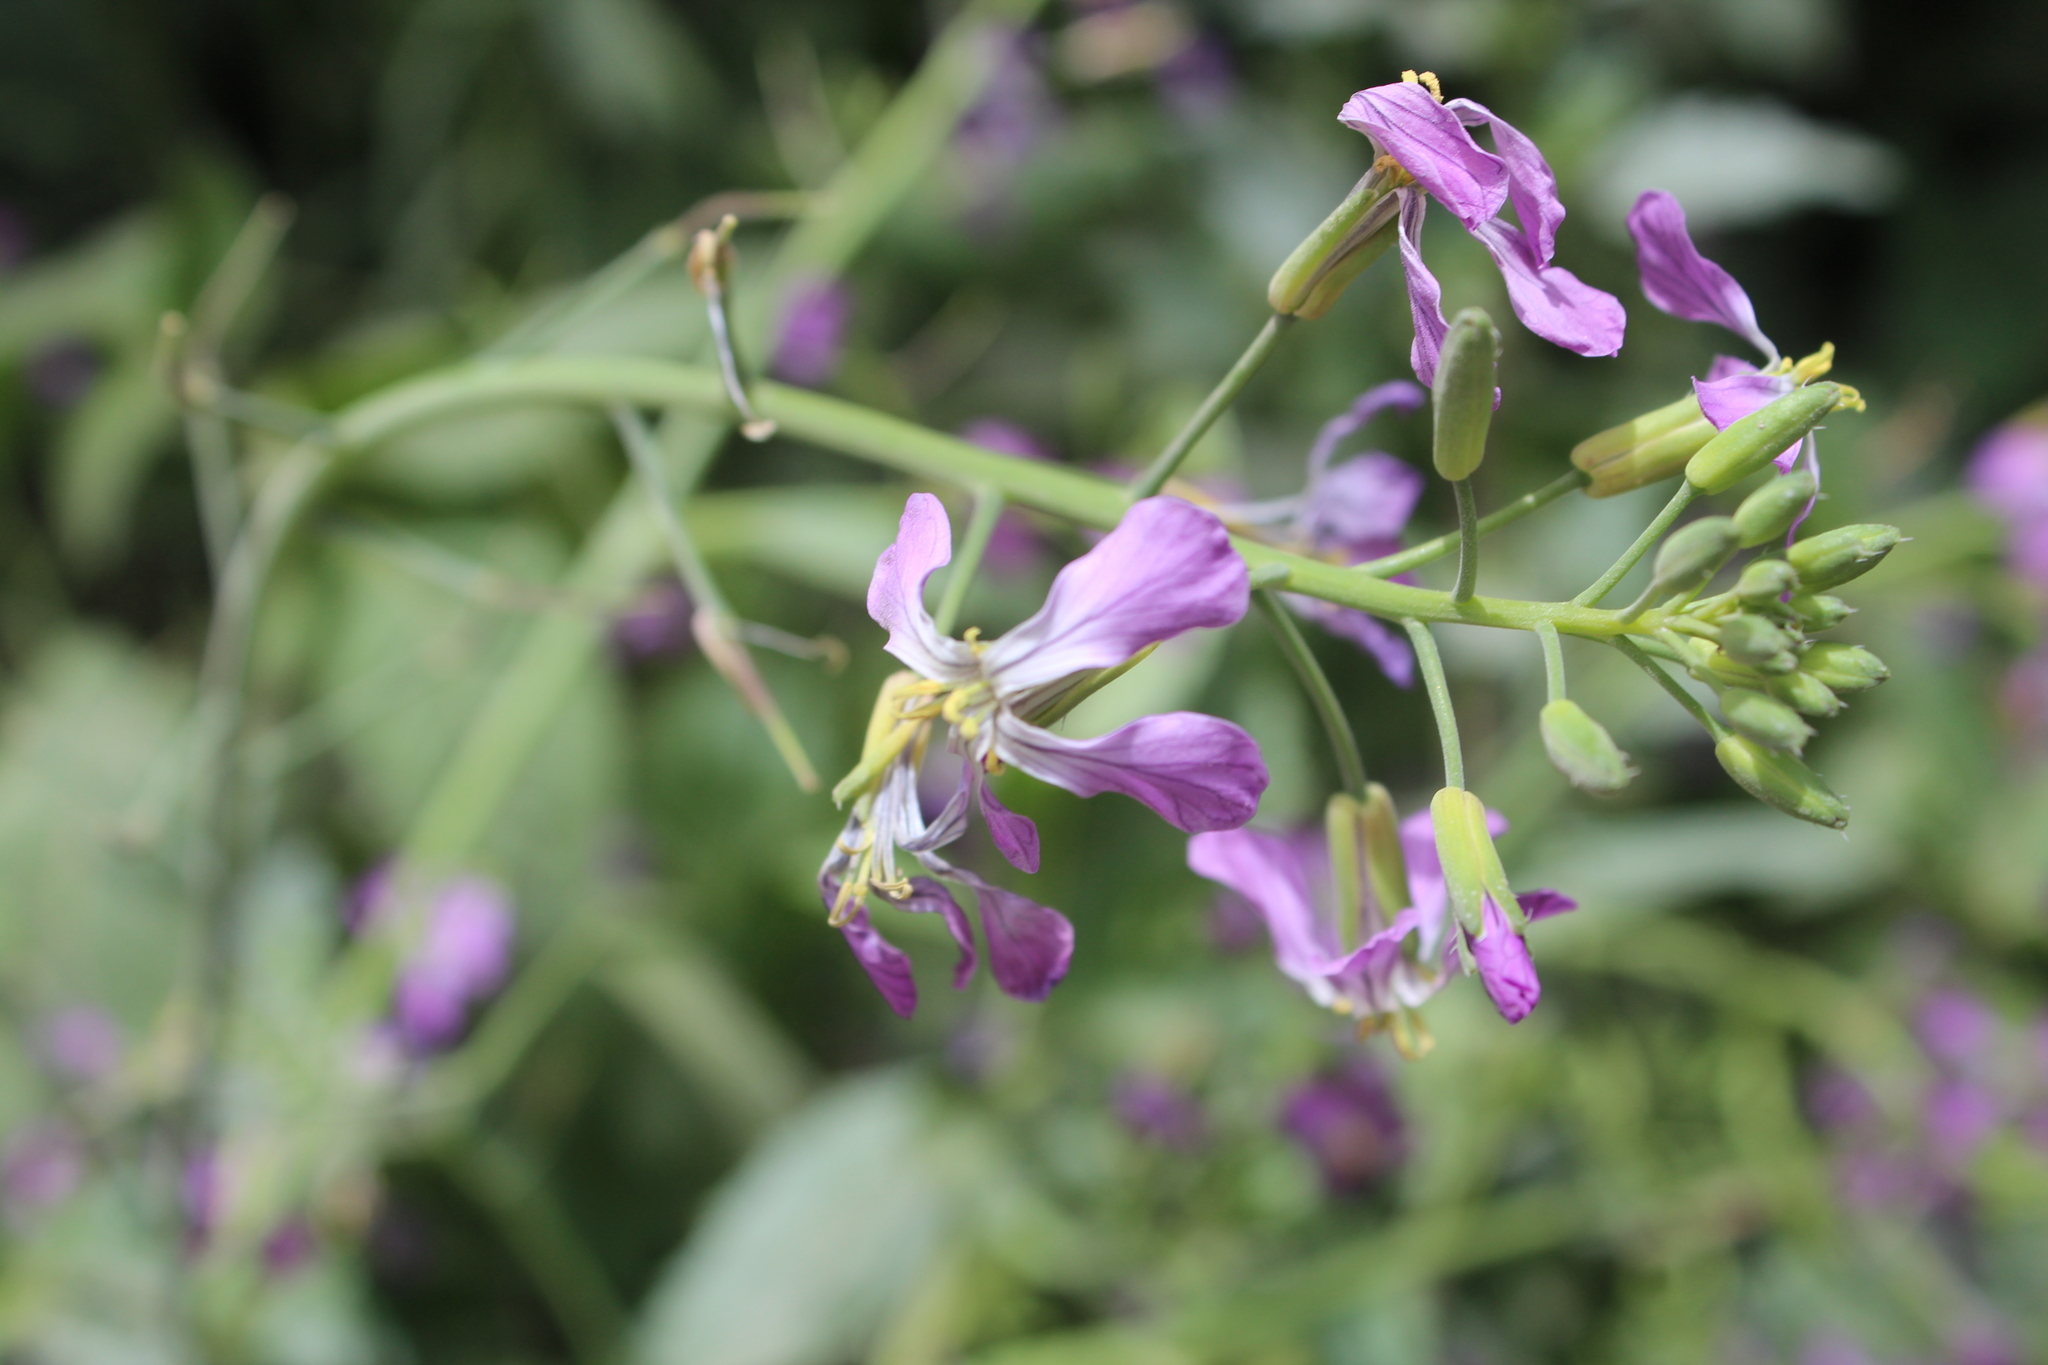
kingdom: Plantae
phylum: Tracheophyta
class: Magnoliopsida
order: Brassicales
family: Brassicaceae
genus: Raphanus
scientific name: Raphanus sativus
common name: Cultivated radish
